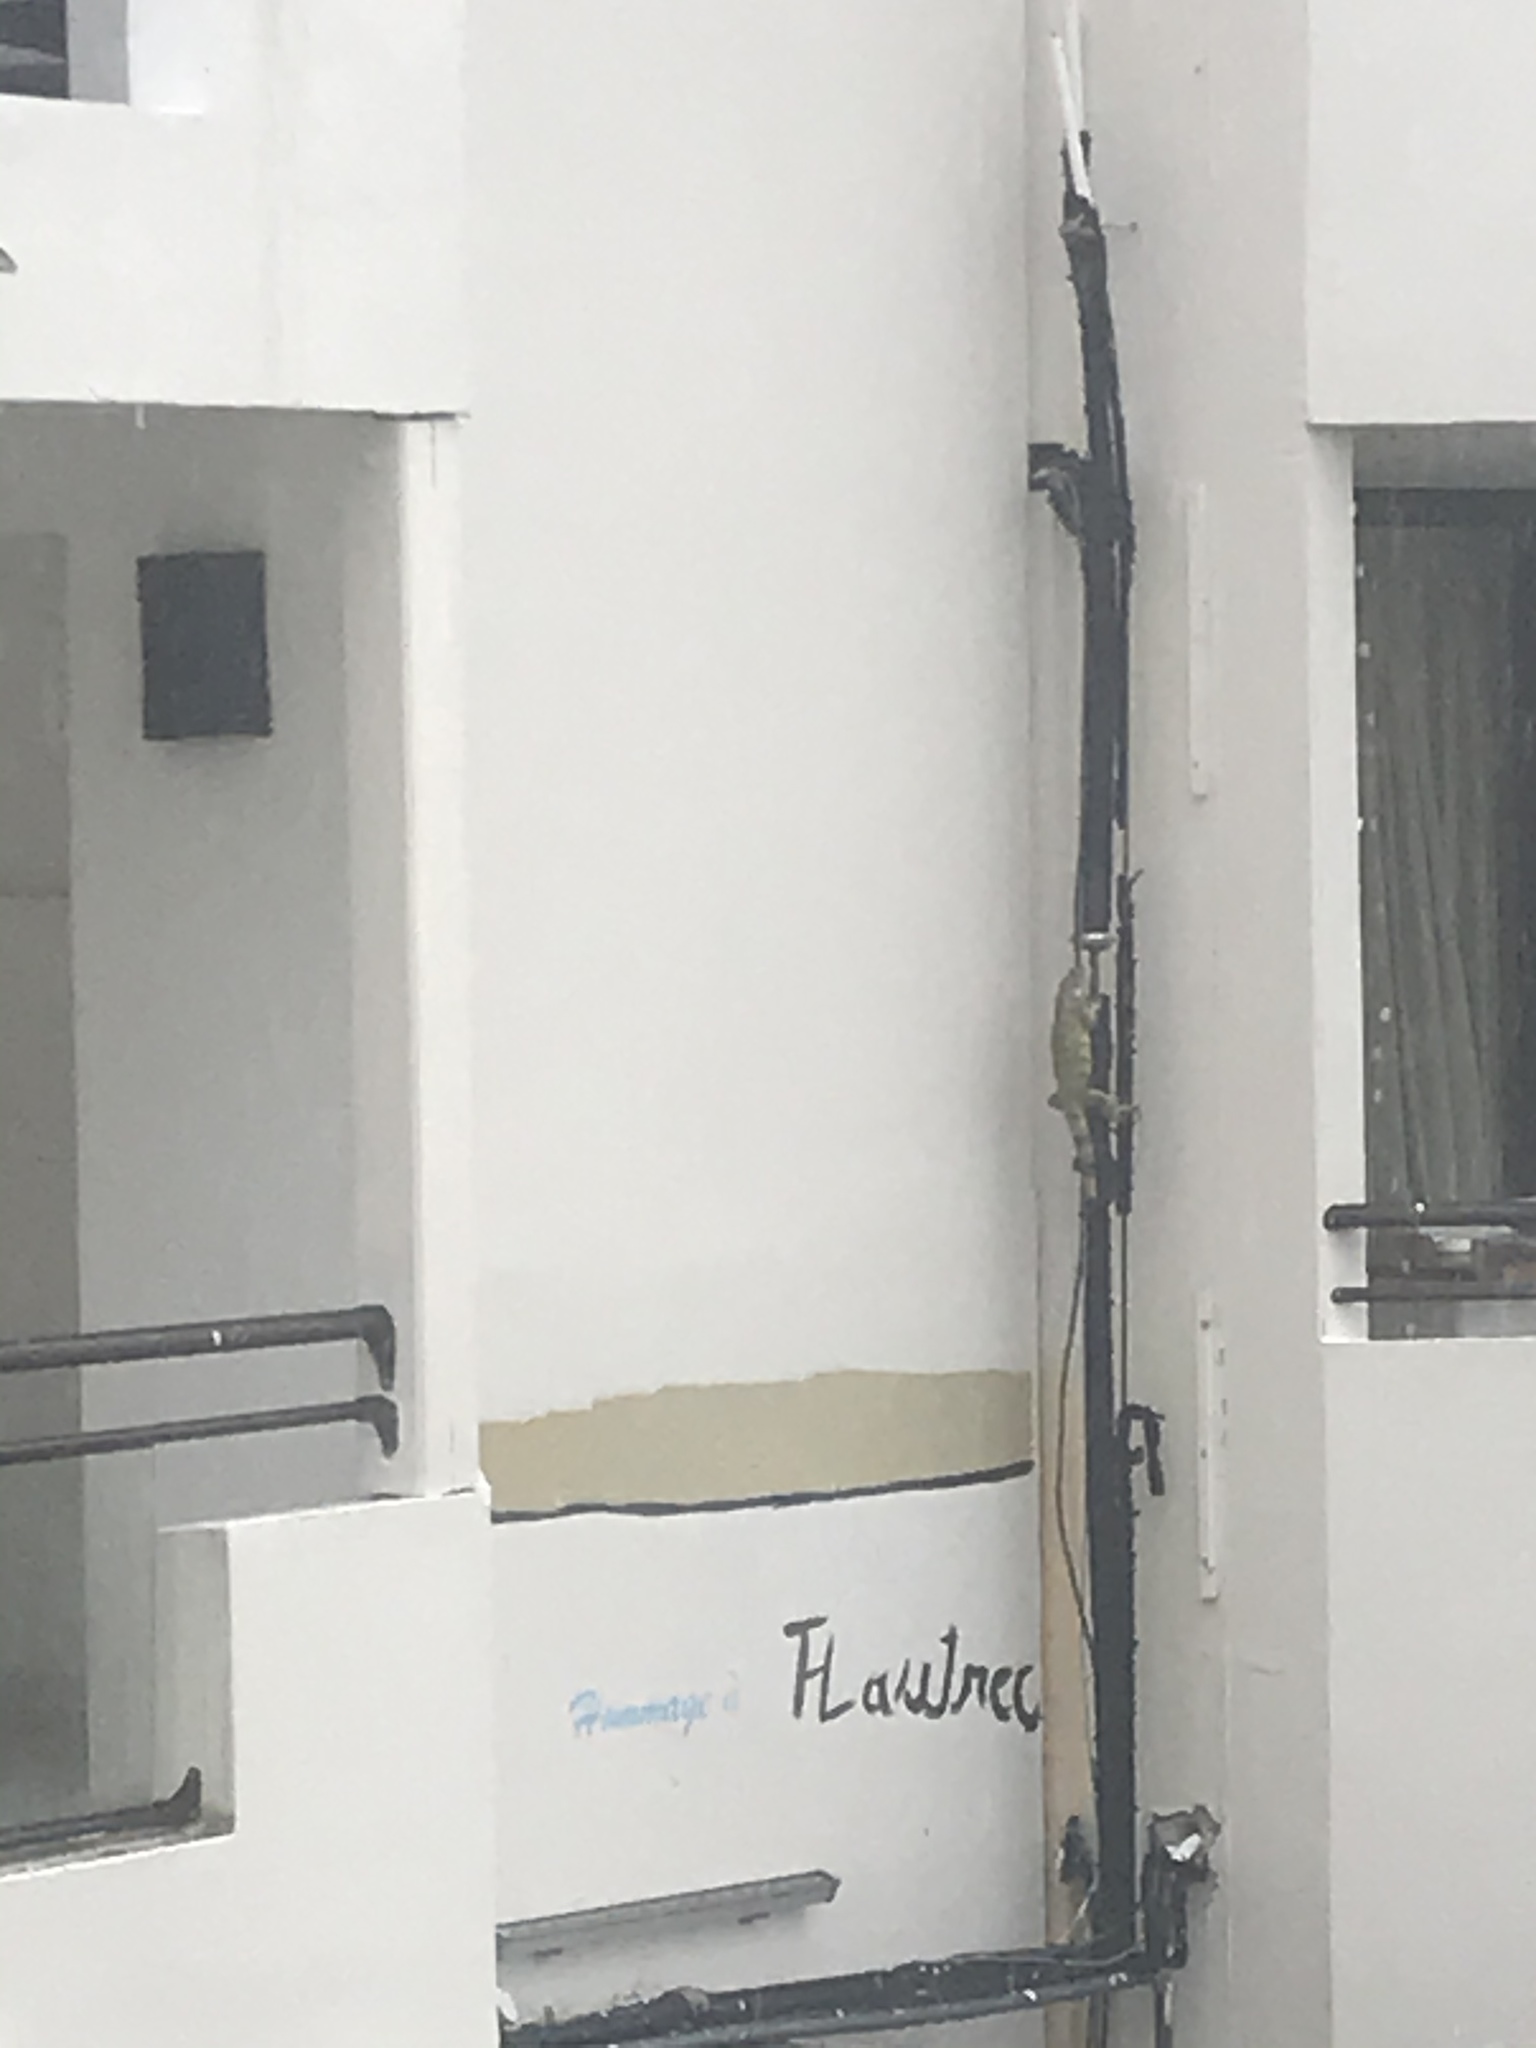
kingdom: Animalia
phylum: Chordata
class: Squamata
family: Iguanidae
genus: Iguana
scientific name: Iguana iguana
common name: Green iguana
